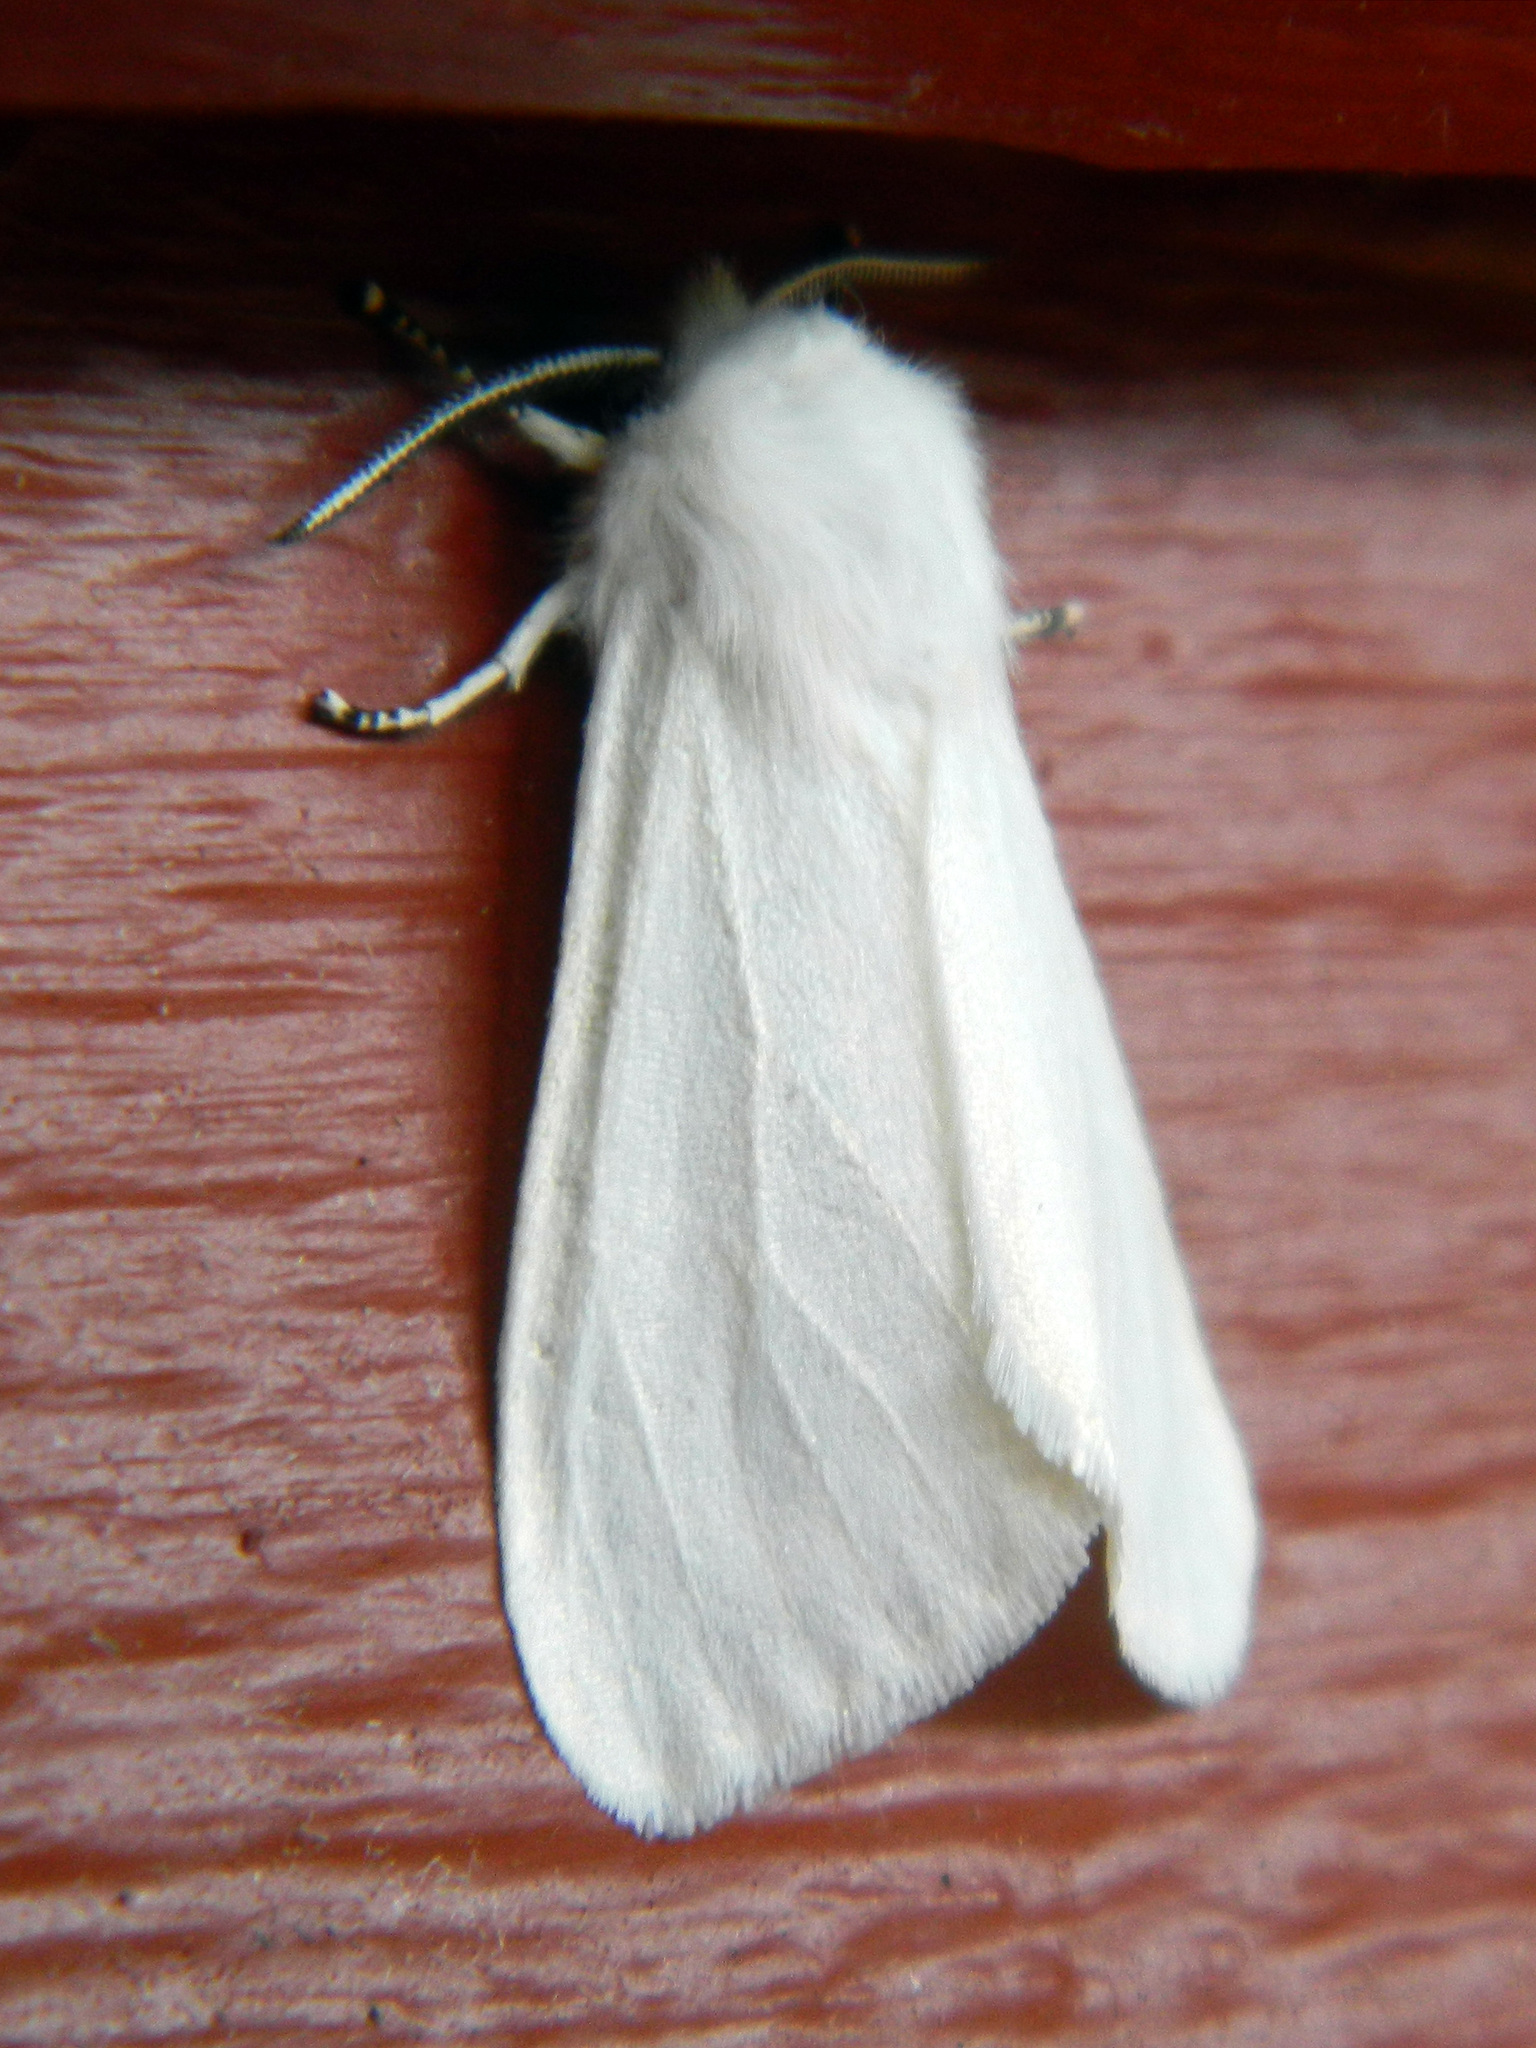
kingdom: Animalia
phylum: Arthropoda
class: Insecta
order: Lepidoptera
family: Erebidae
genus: Hyphantria
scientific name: Hyphantria cunea
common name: American white moth
